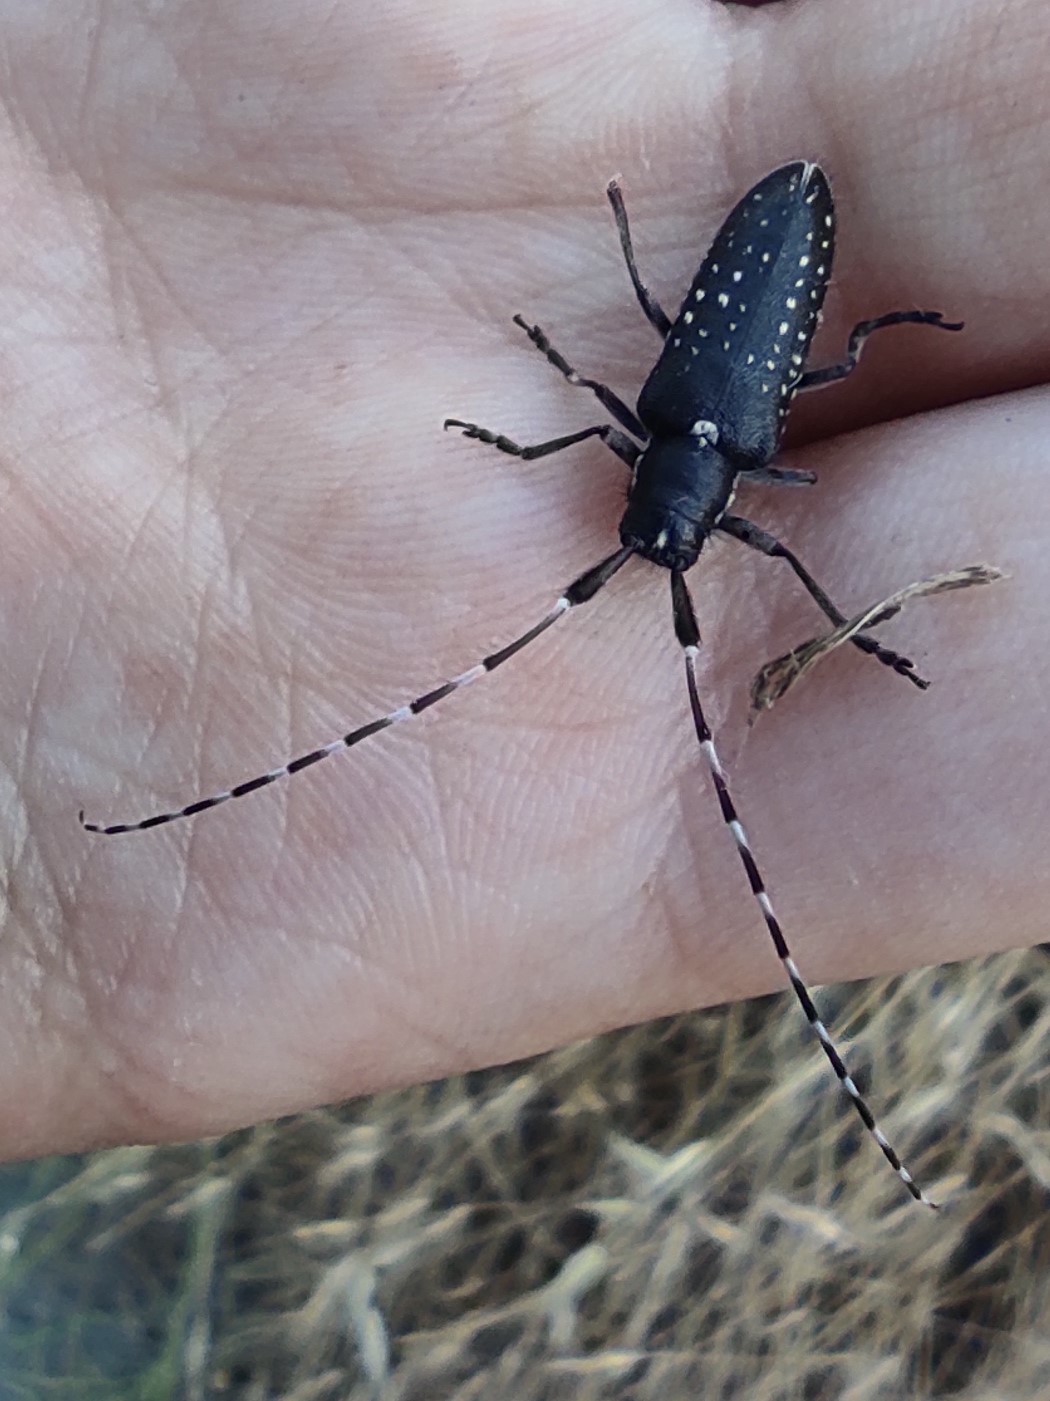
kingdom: Animalia
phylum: Arthropoda
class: Insecta
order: Coleoptera
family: Cerambycidae
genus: Agapanthia
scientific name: Agapanthia irrorata
